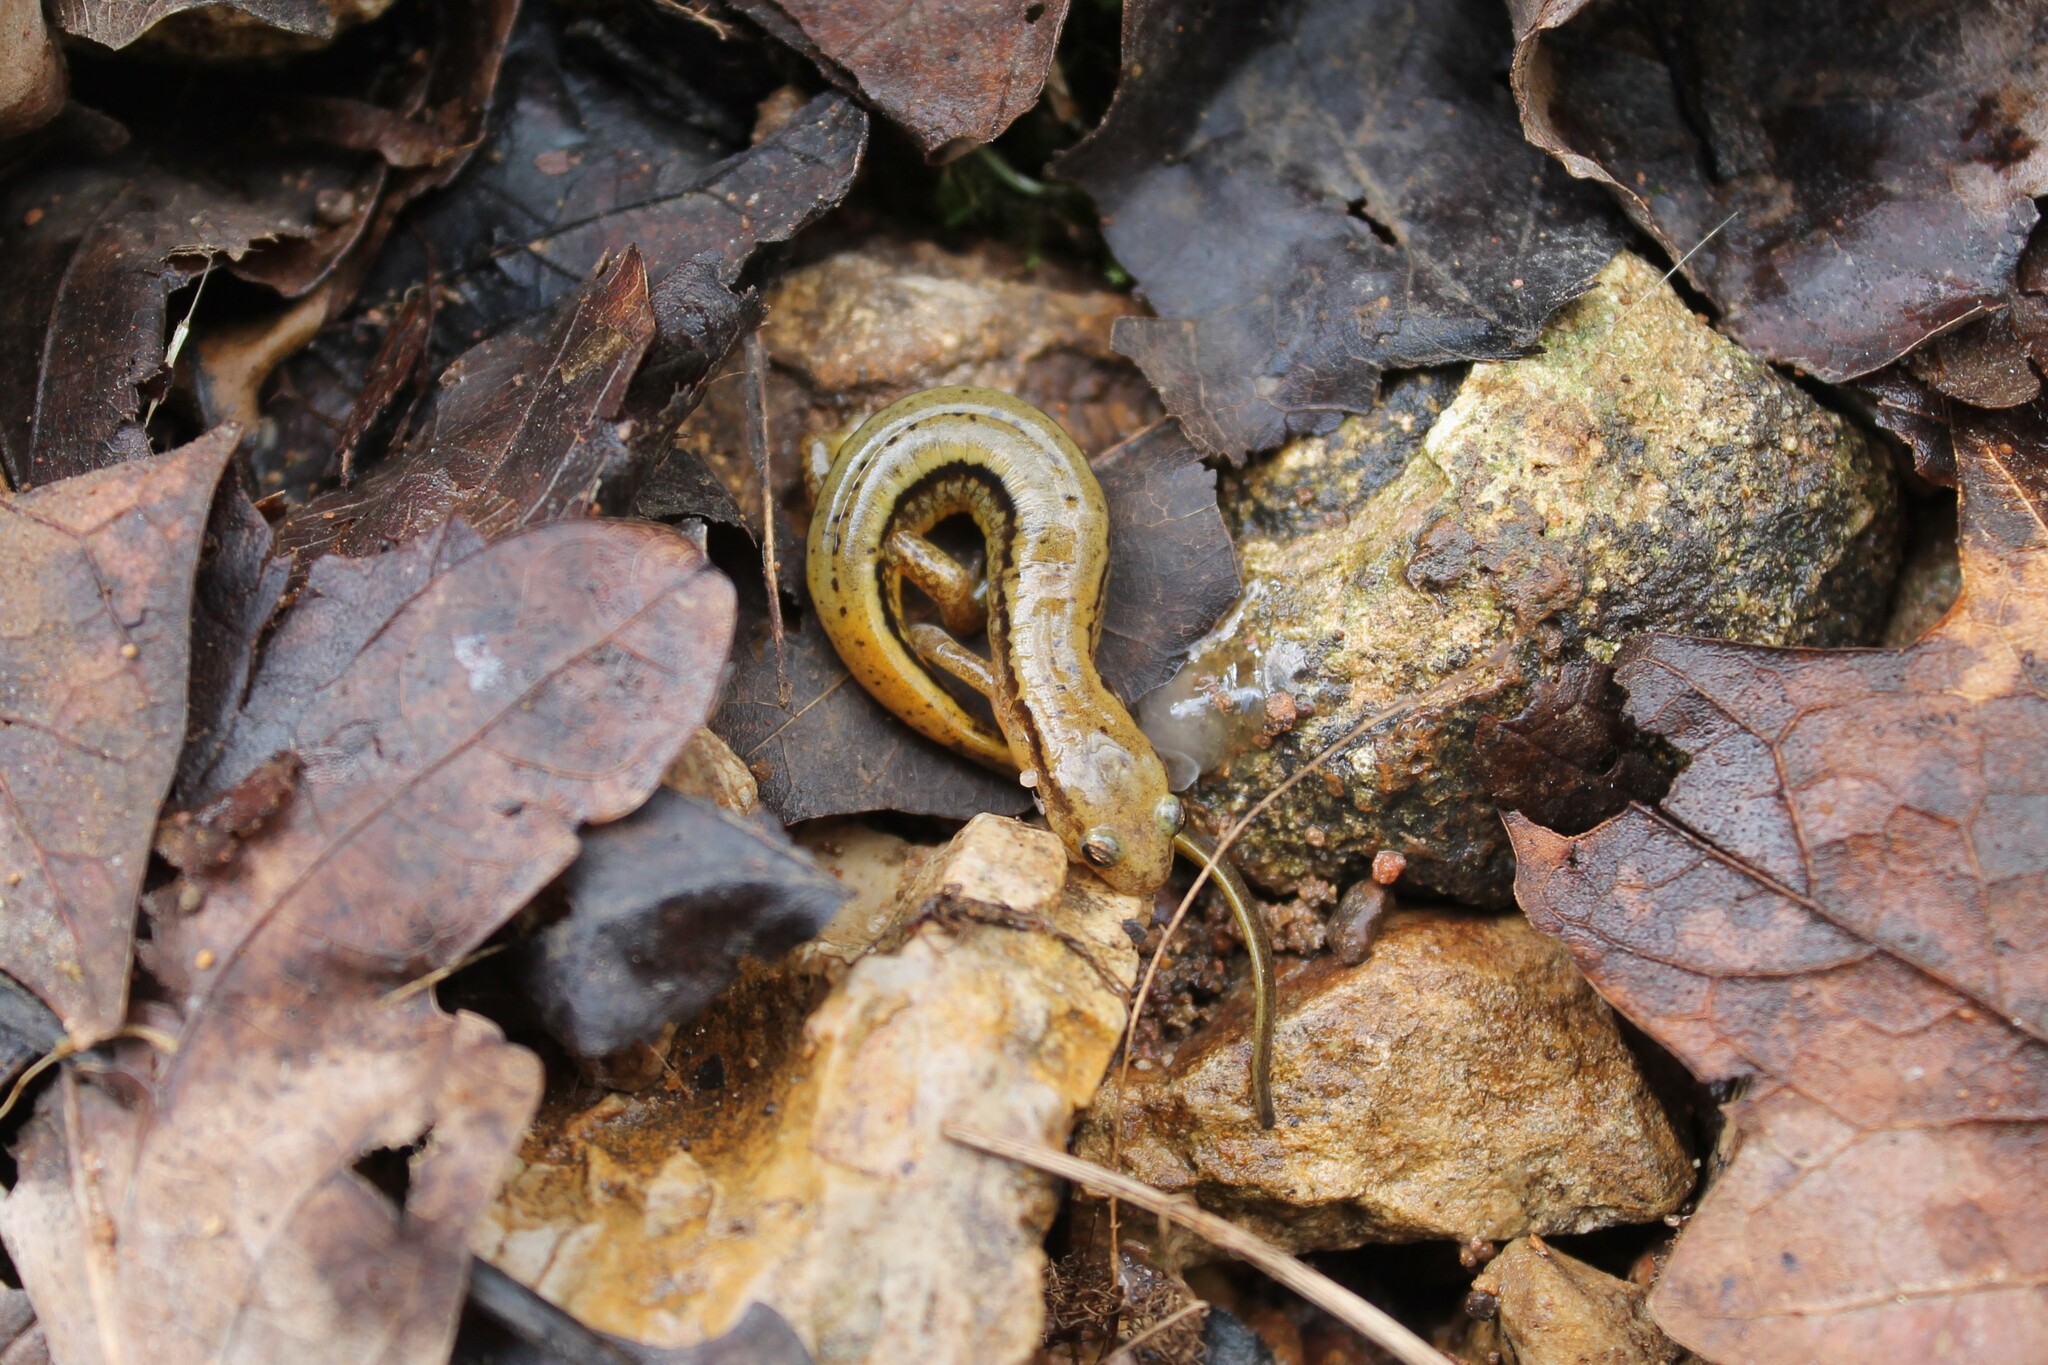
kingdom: Animalia
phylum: Chordata
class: Amphibia
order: Caudata
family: Plethodontidae
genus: Eurycea
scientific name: Eurycea cirrigera
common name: Southern two-lined salamander
